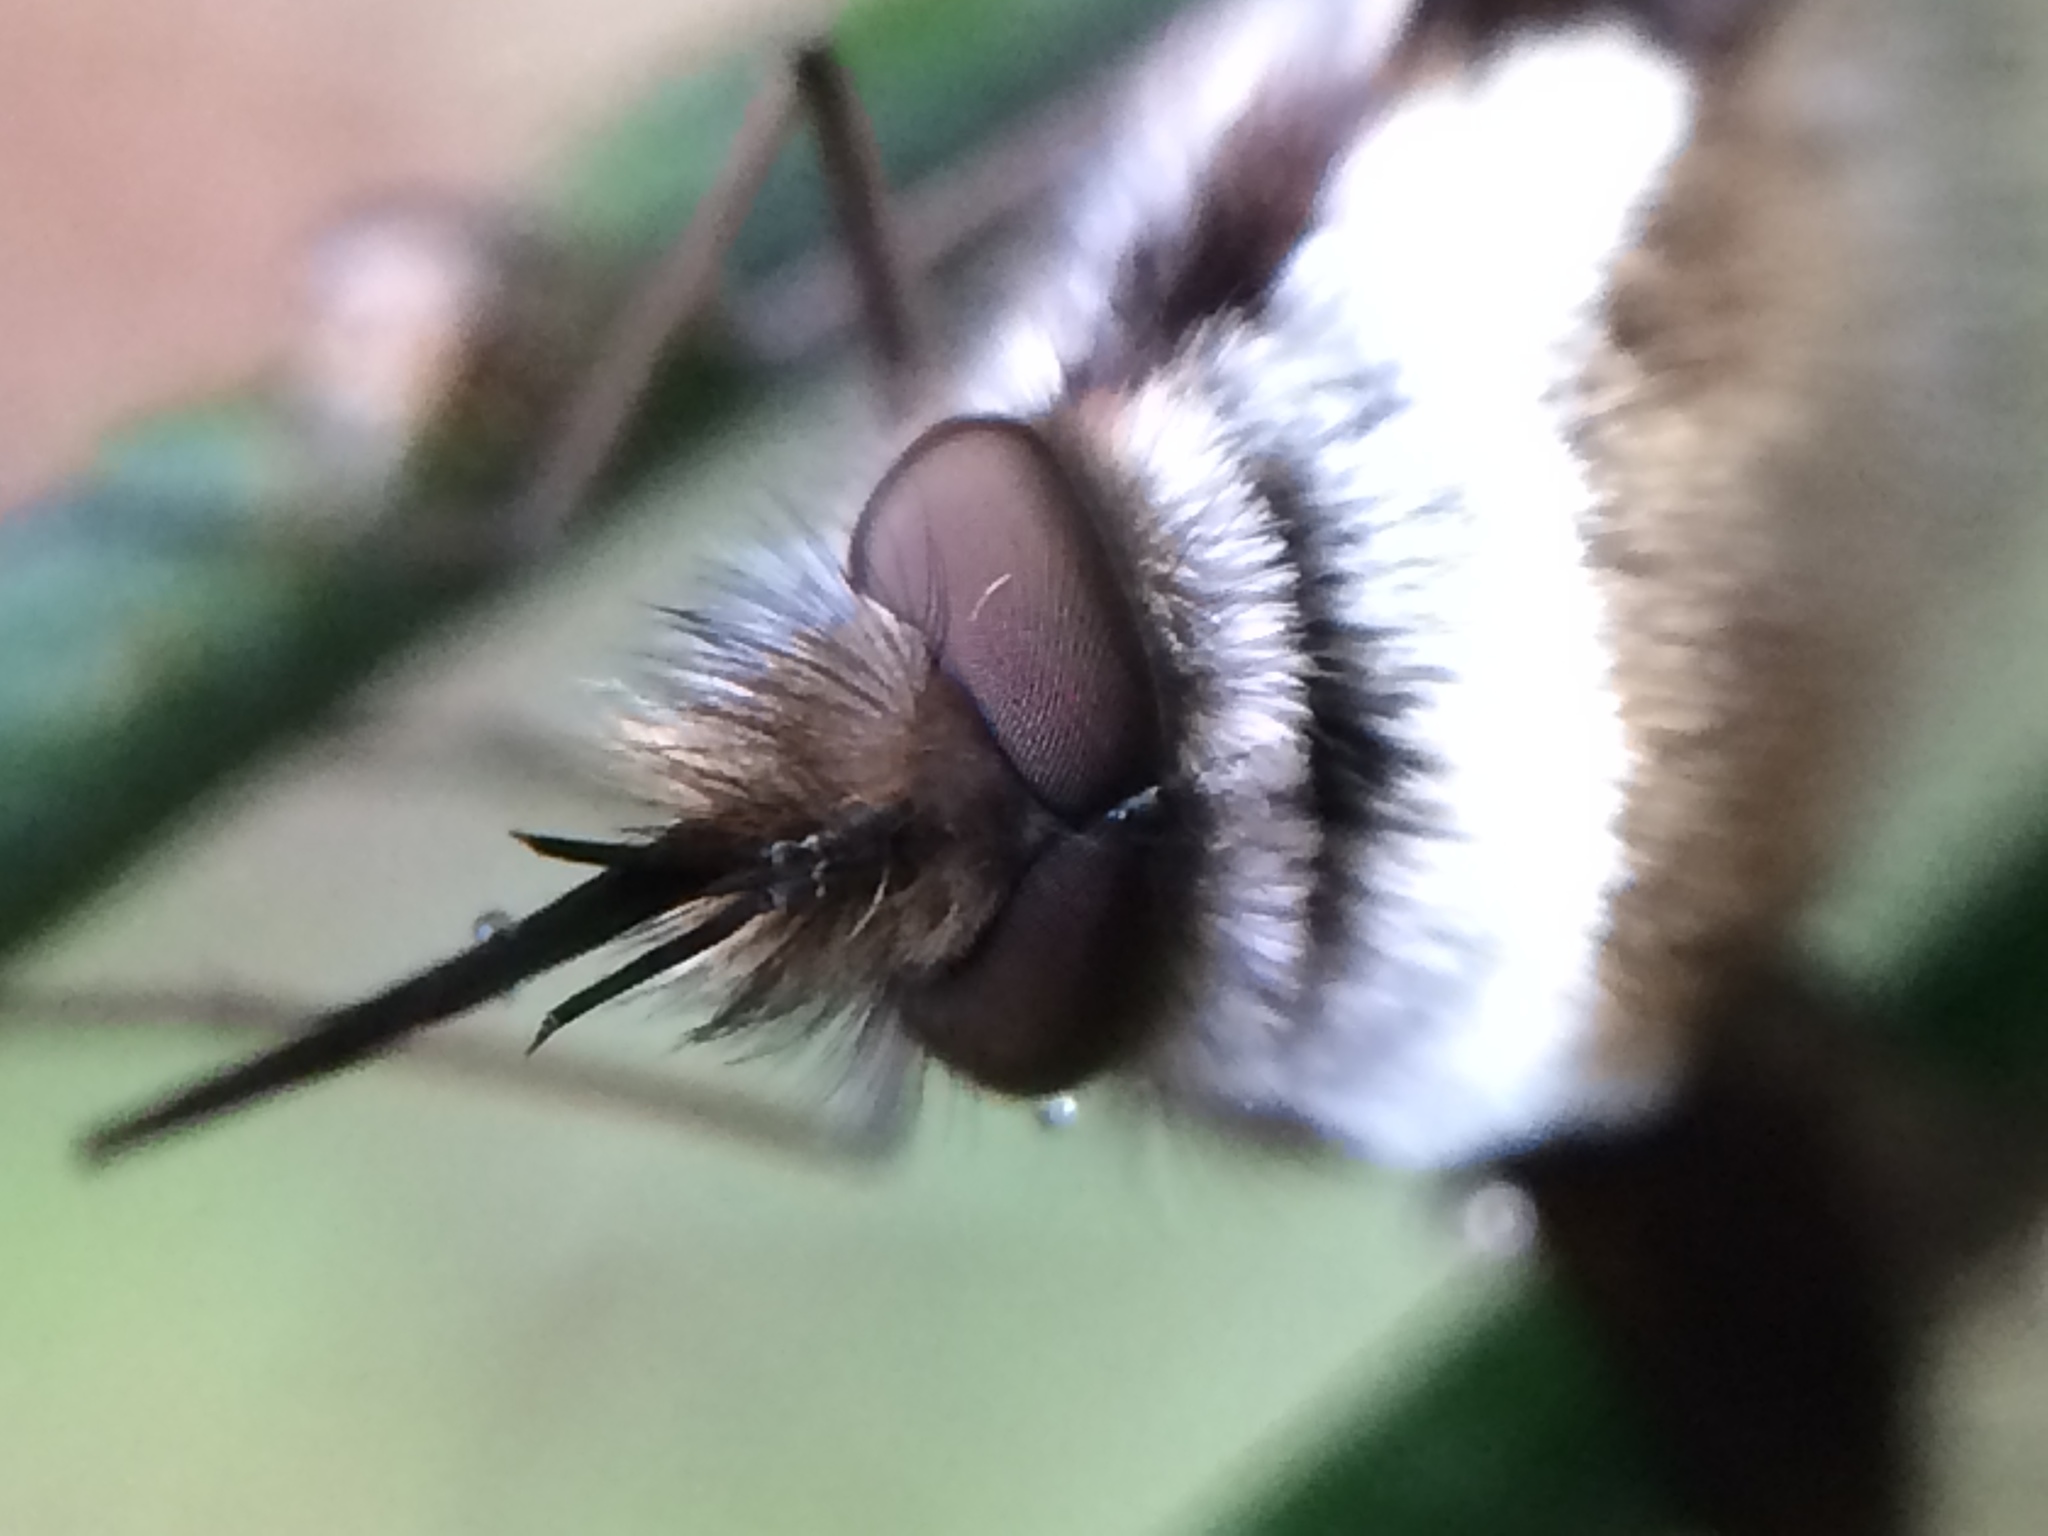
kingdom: Animalia
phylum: Arthropoda
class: Insecta
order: Diptera
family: Bombyliidae
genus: Bombylius
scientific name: Bombylius major
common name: Bee fly
